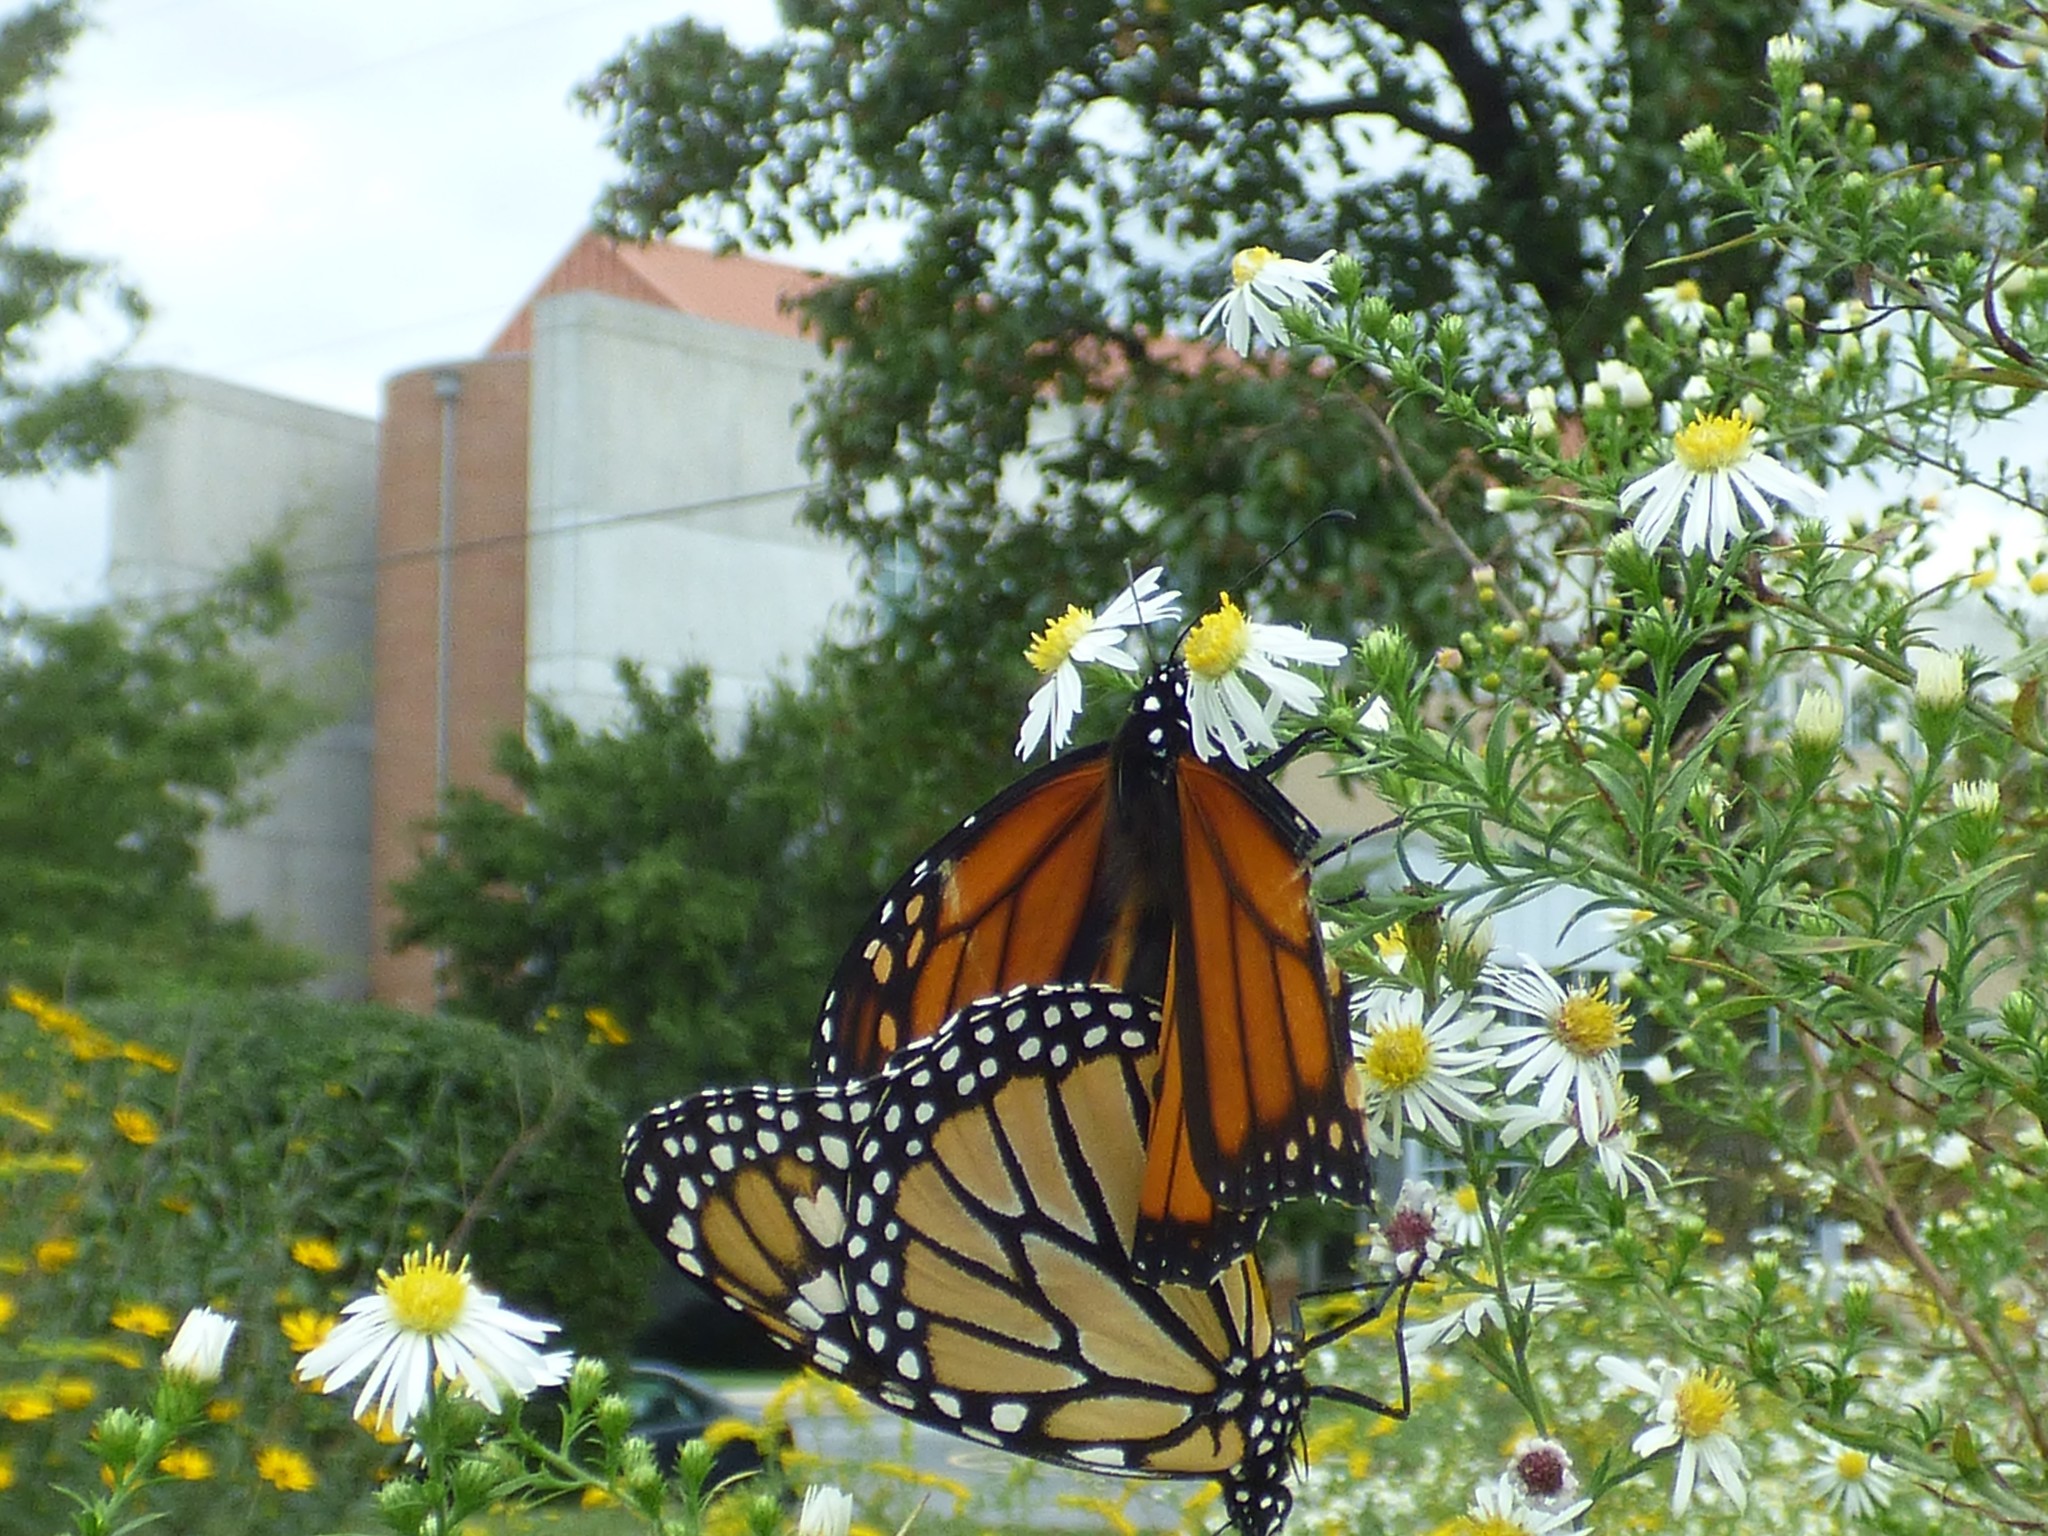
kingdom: Animalia
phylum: Arthropoda
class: Insecta
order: Lepidoptera
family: Nymphalidae
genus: Danaus
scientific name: Danaus plexippus
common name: Monarch
